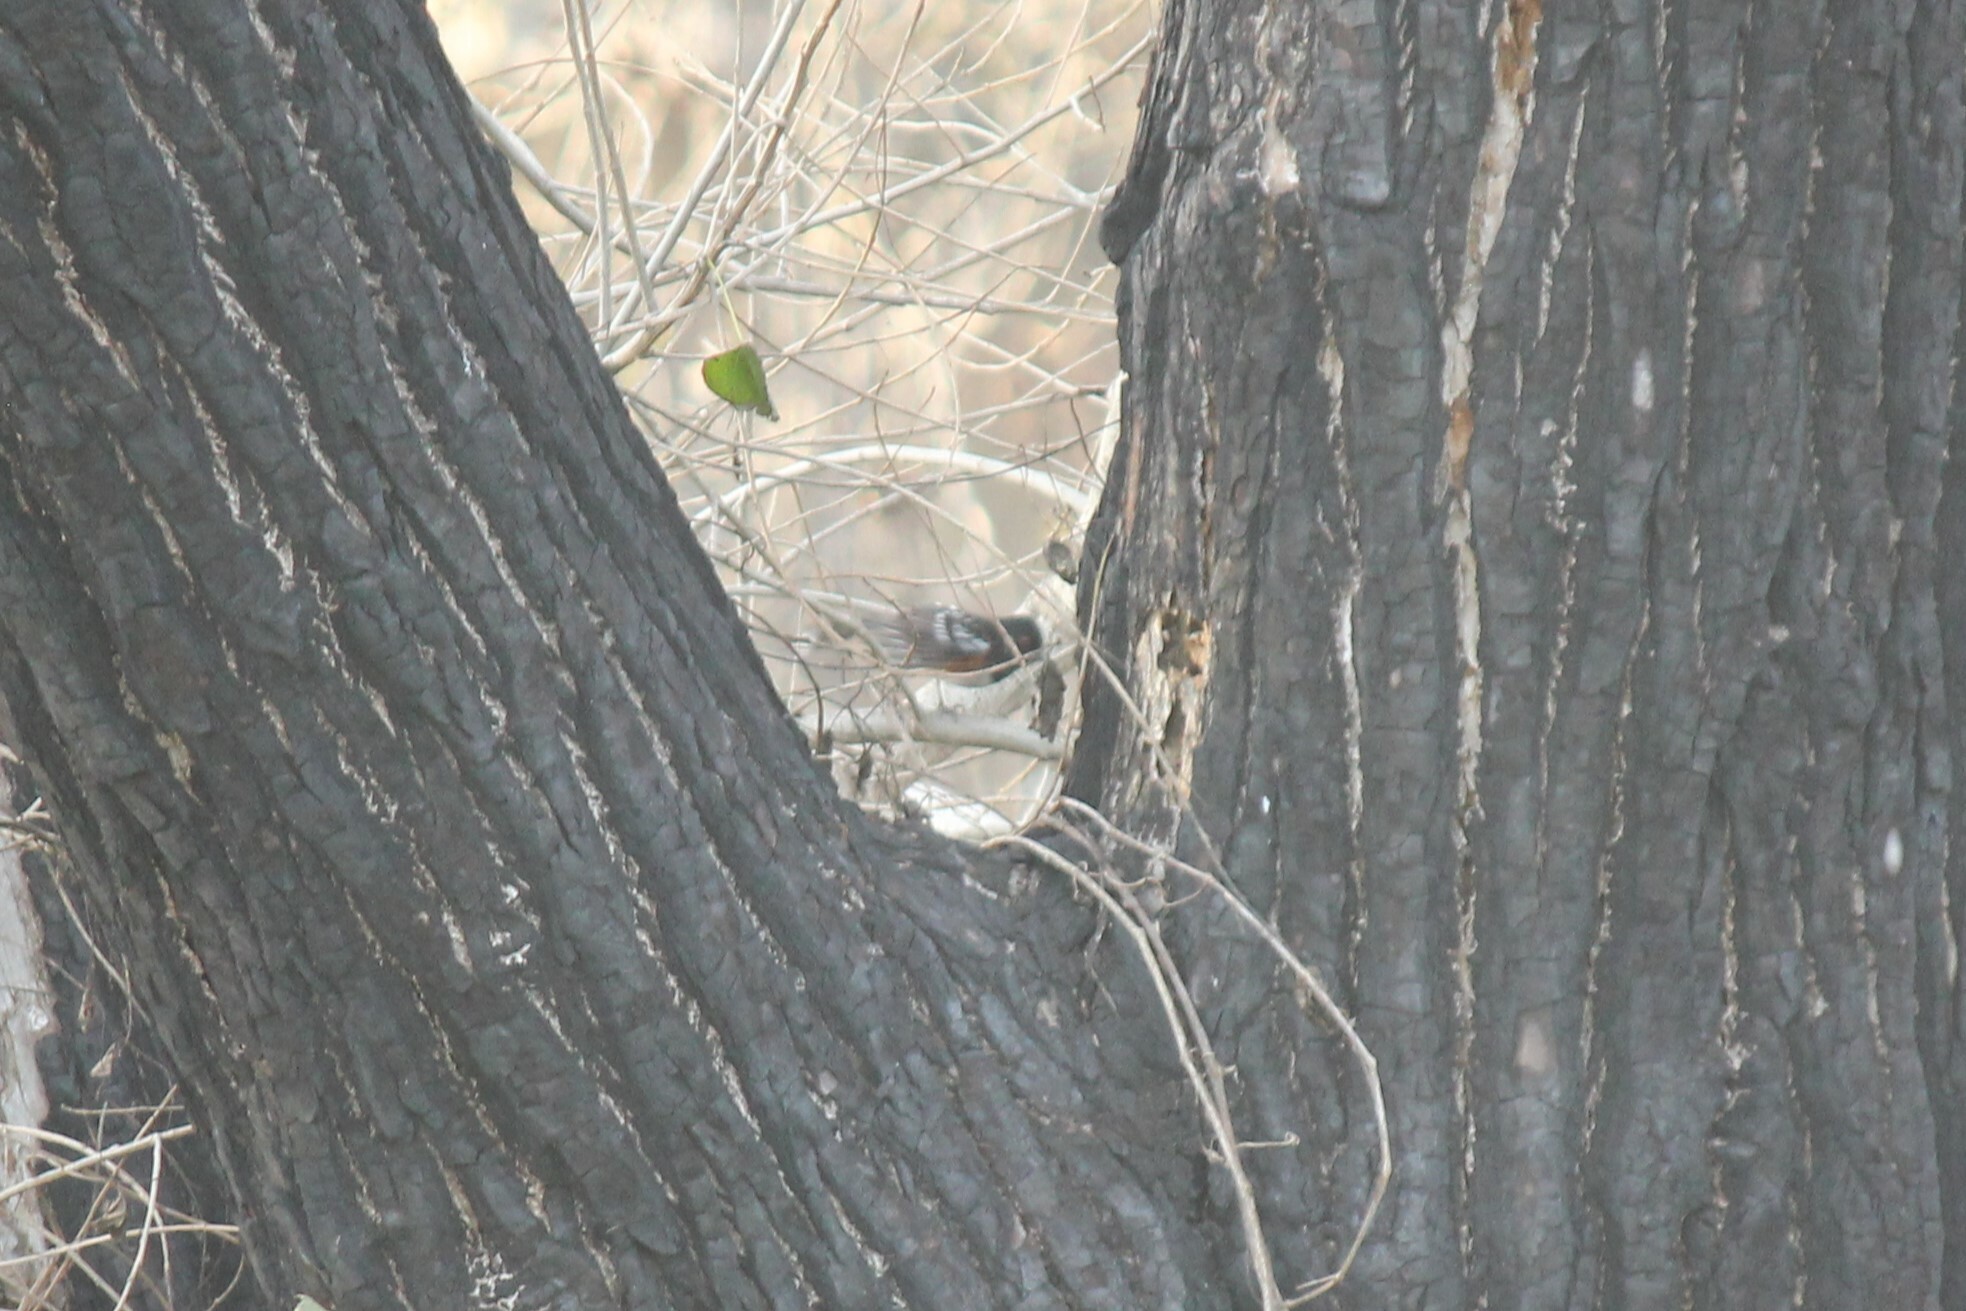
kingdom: Animalia
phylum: Chordata
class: Aves
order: Passeriformes
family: Passerellidae
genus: Pipilo
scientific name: Pipilo maculatus
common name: Spotted towhee
